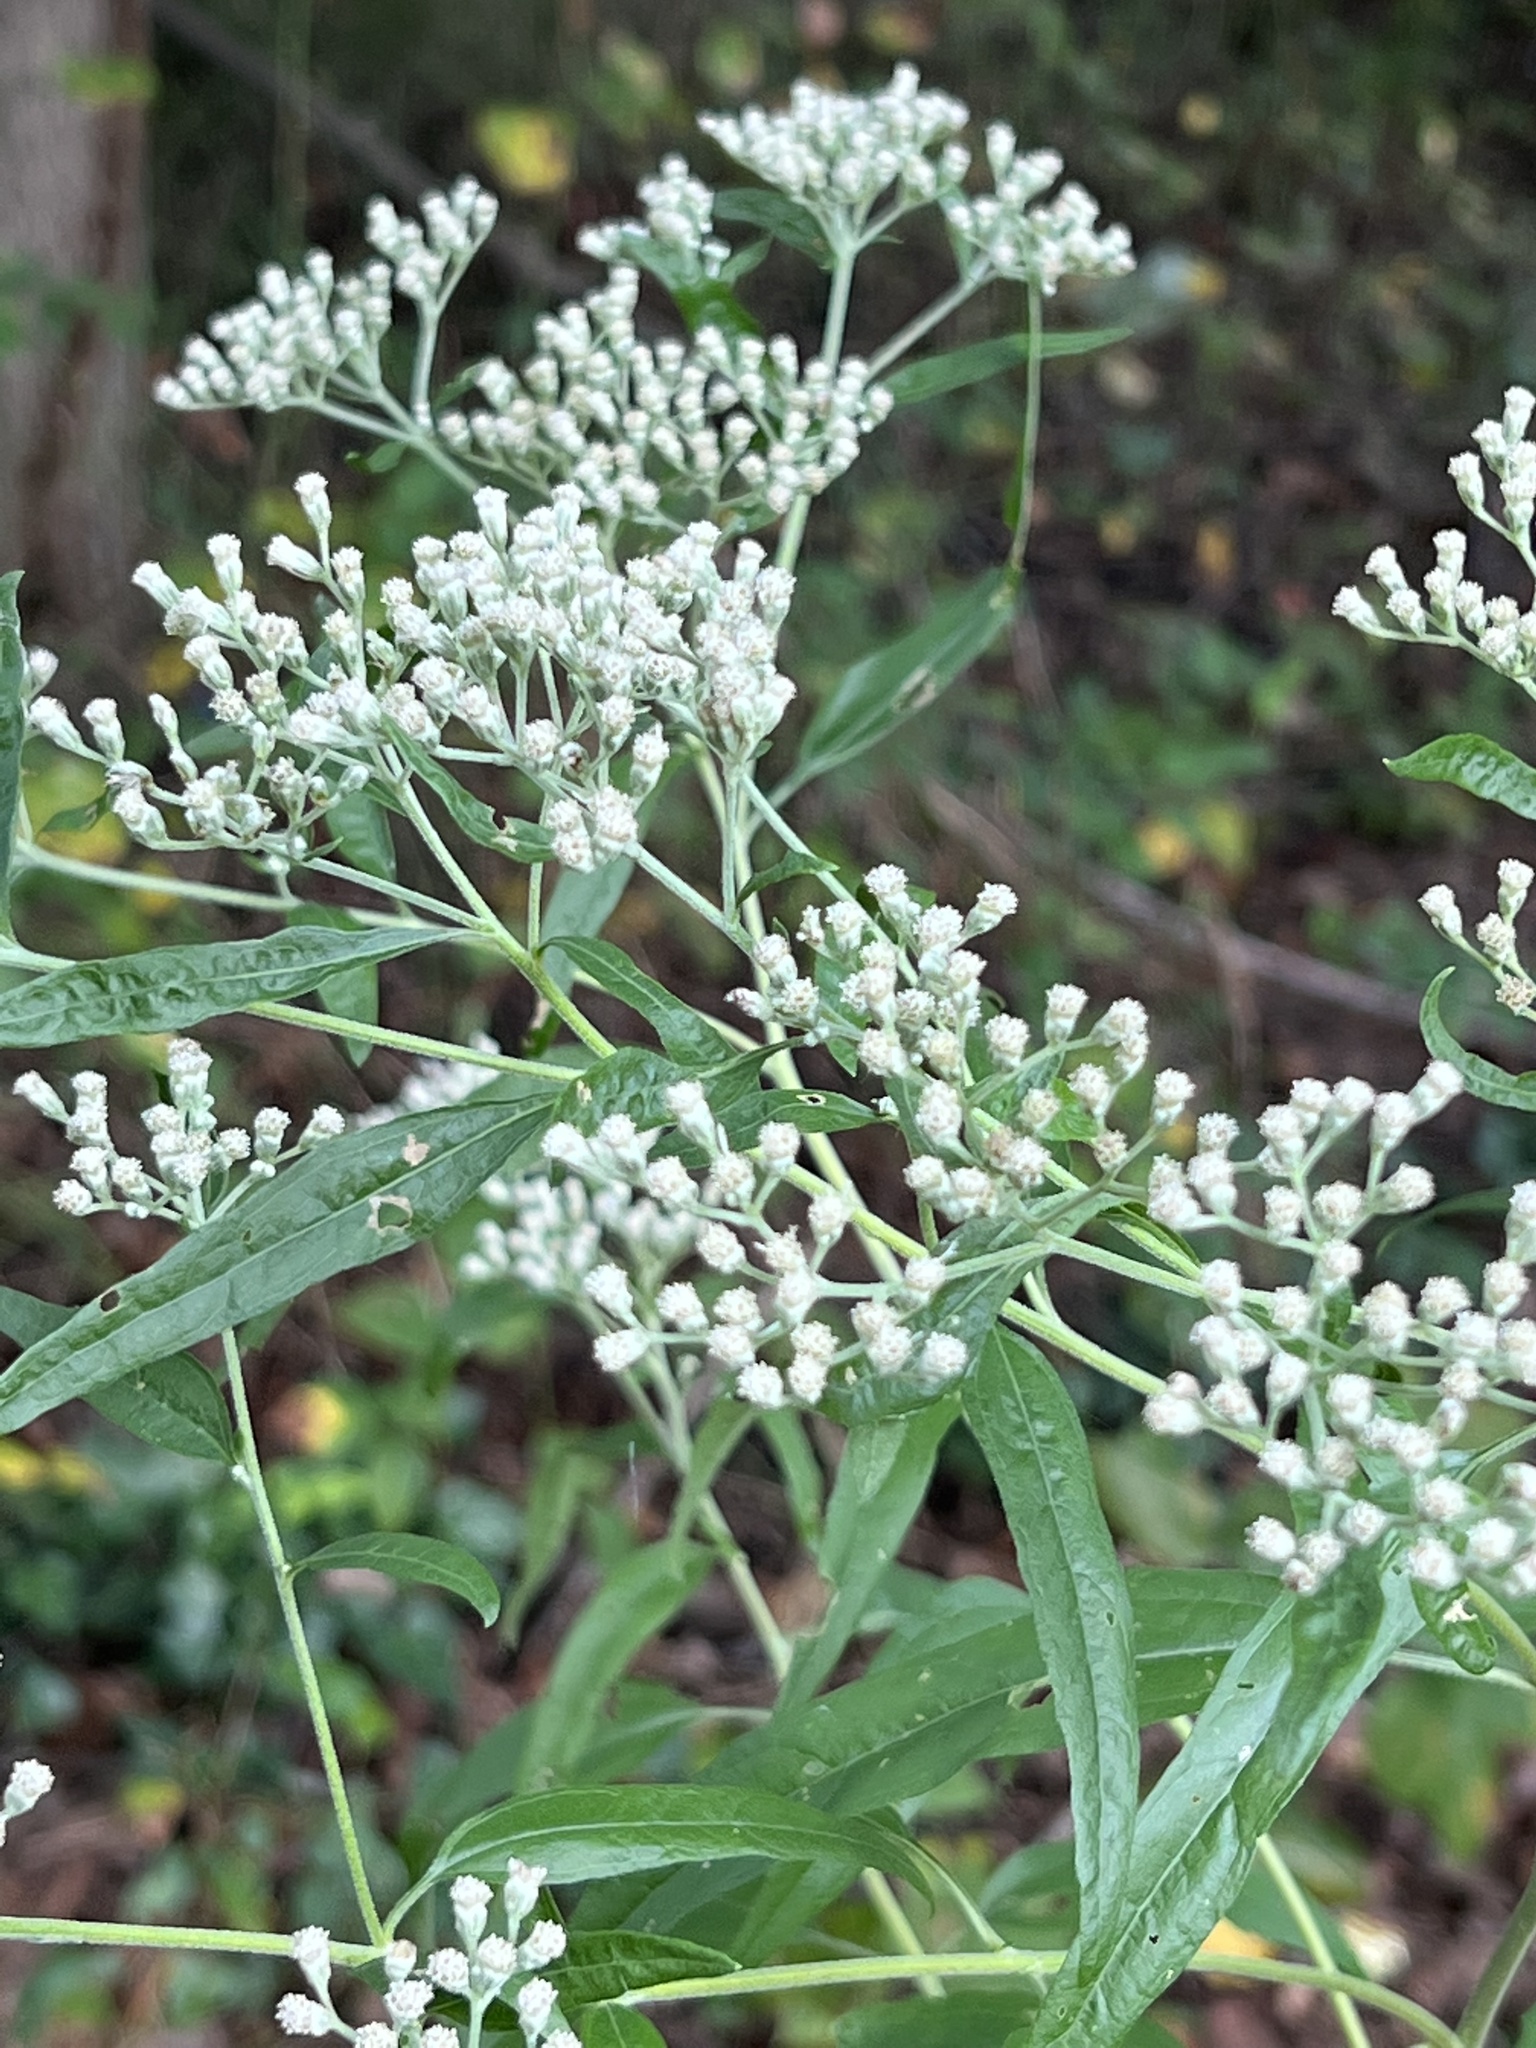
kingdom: Plantae
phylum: Tracheophyta
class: Magnoliopsida
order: Asterales
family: Asteraceae
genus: Eupatorium
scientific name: Eupatorium serotinum
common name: Late boneset
